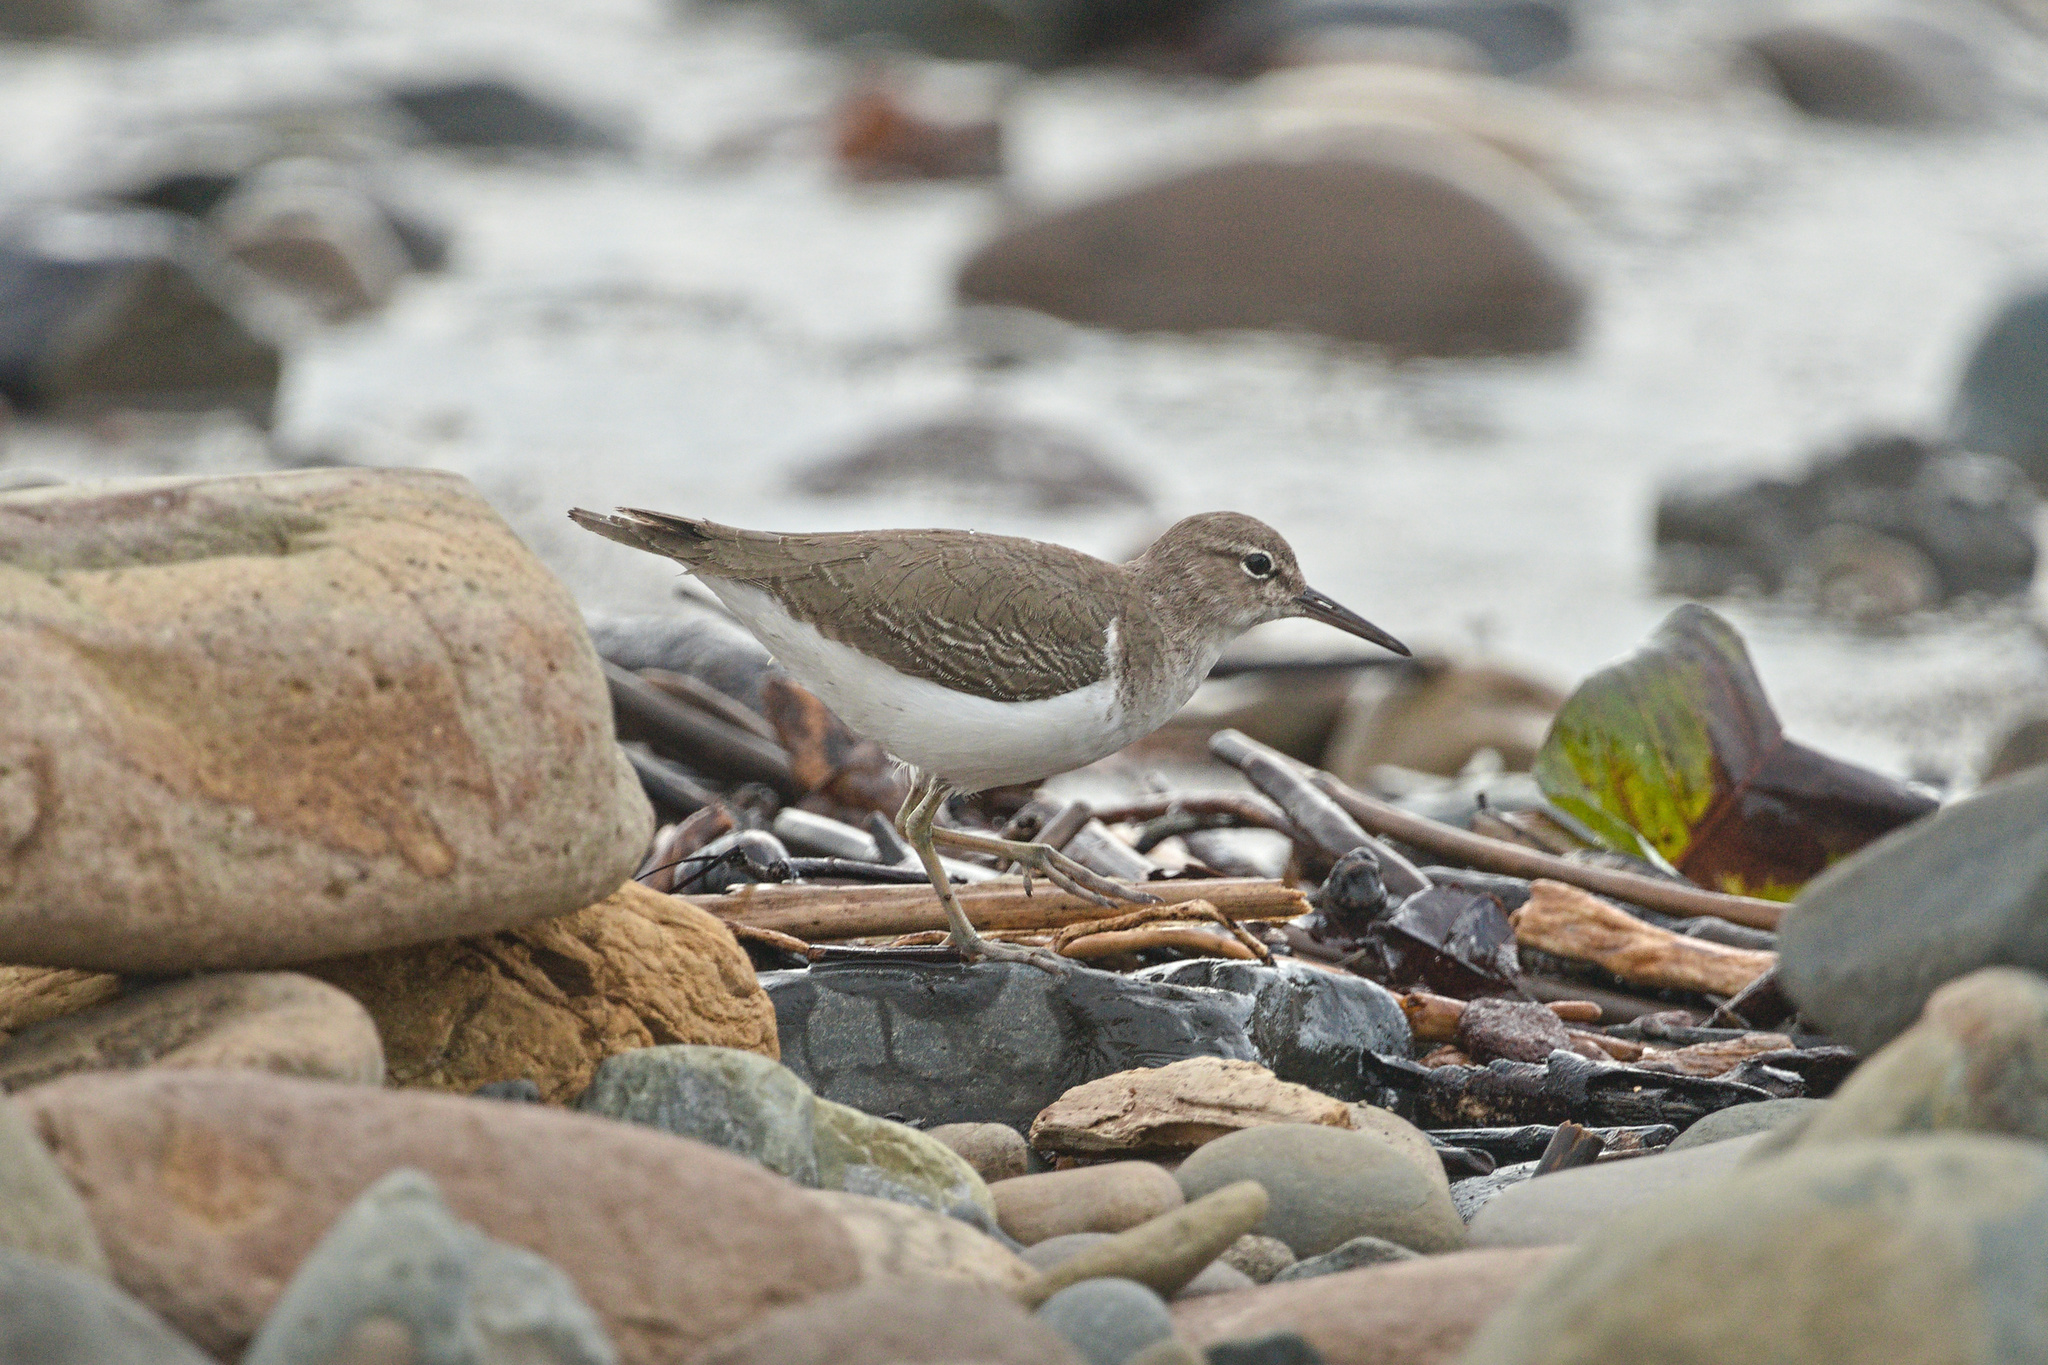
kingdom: Animalia
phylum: Chordata
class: Aves
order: Charadriiformes
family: Scolopacidae
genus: Actitis
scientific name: Actitis macularius
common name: Spotted sandpiper
